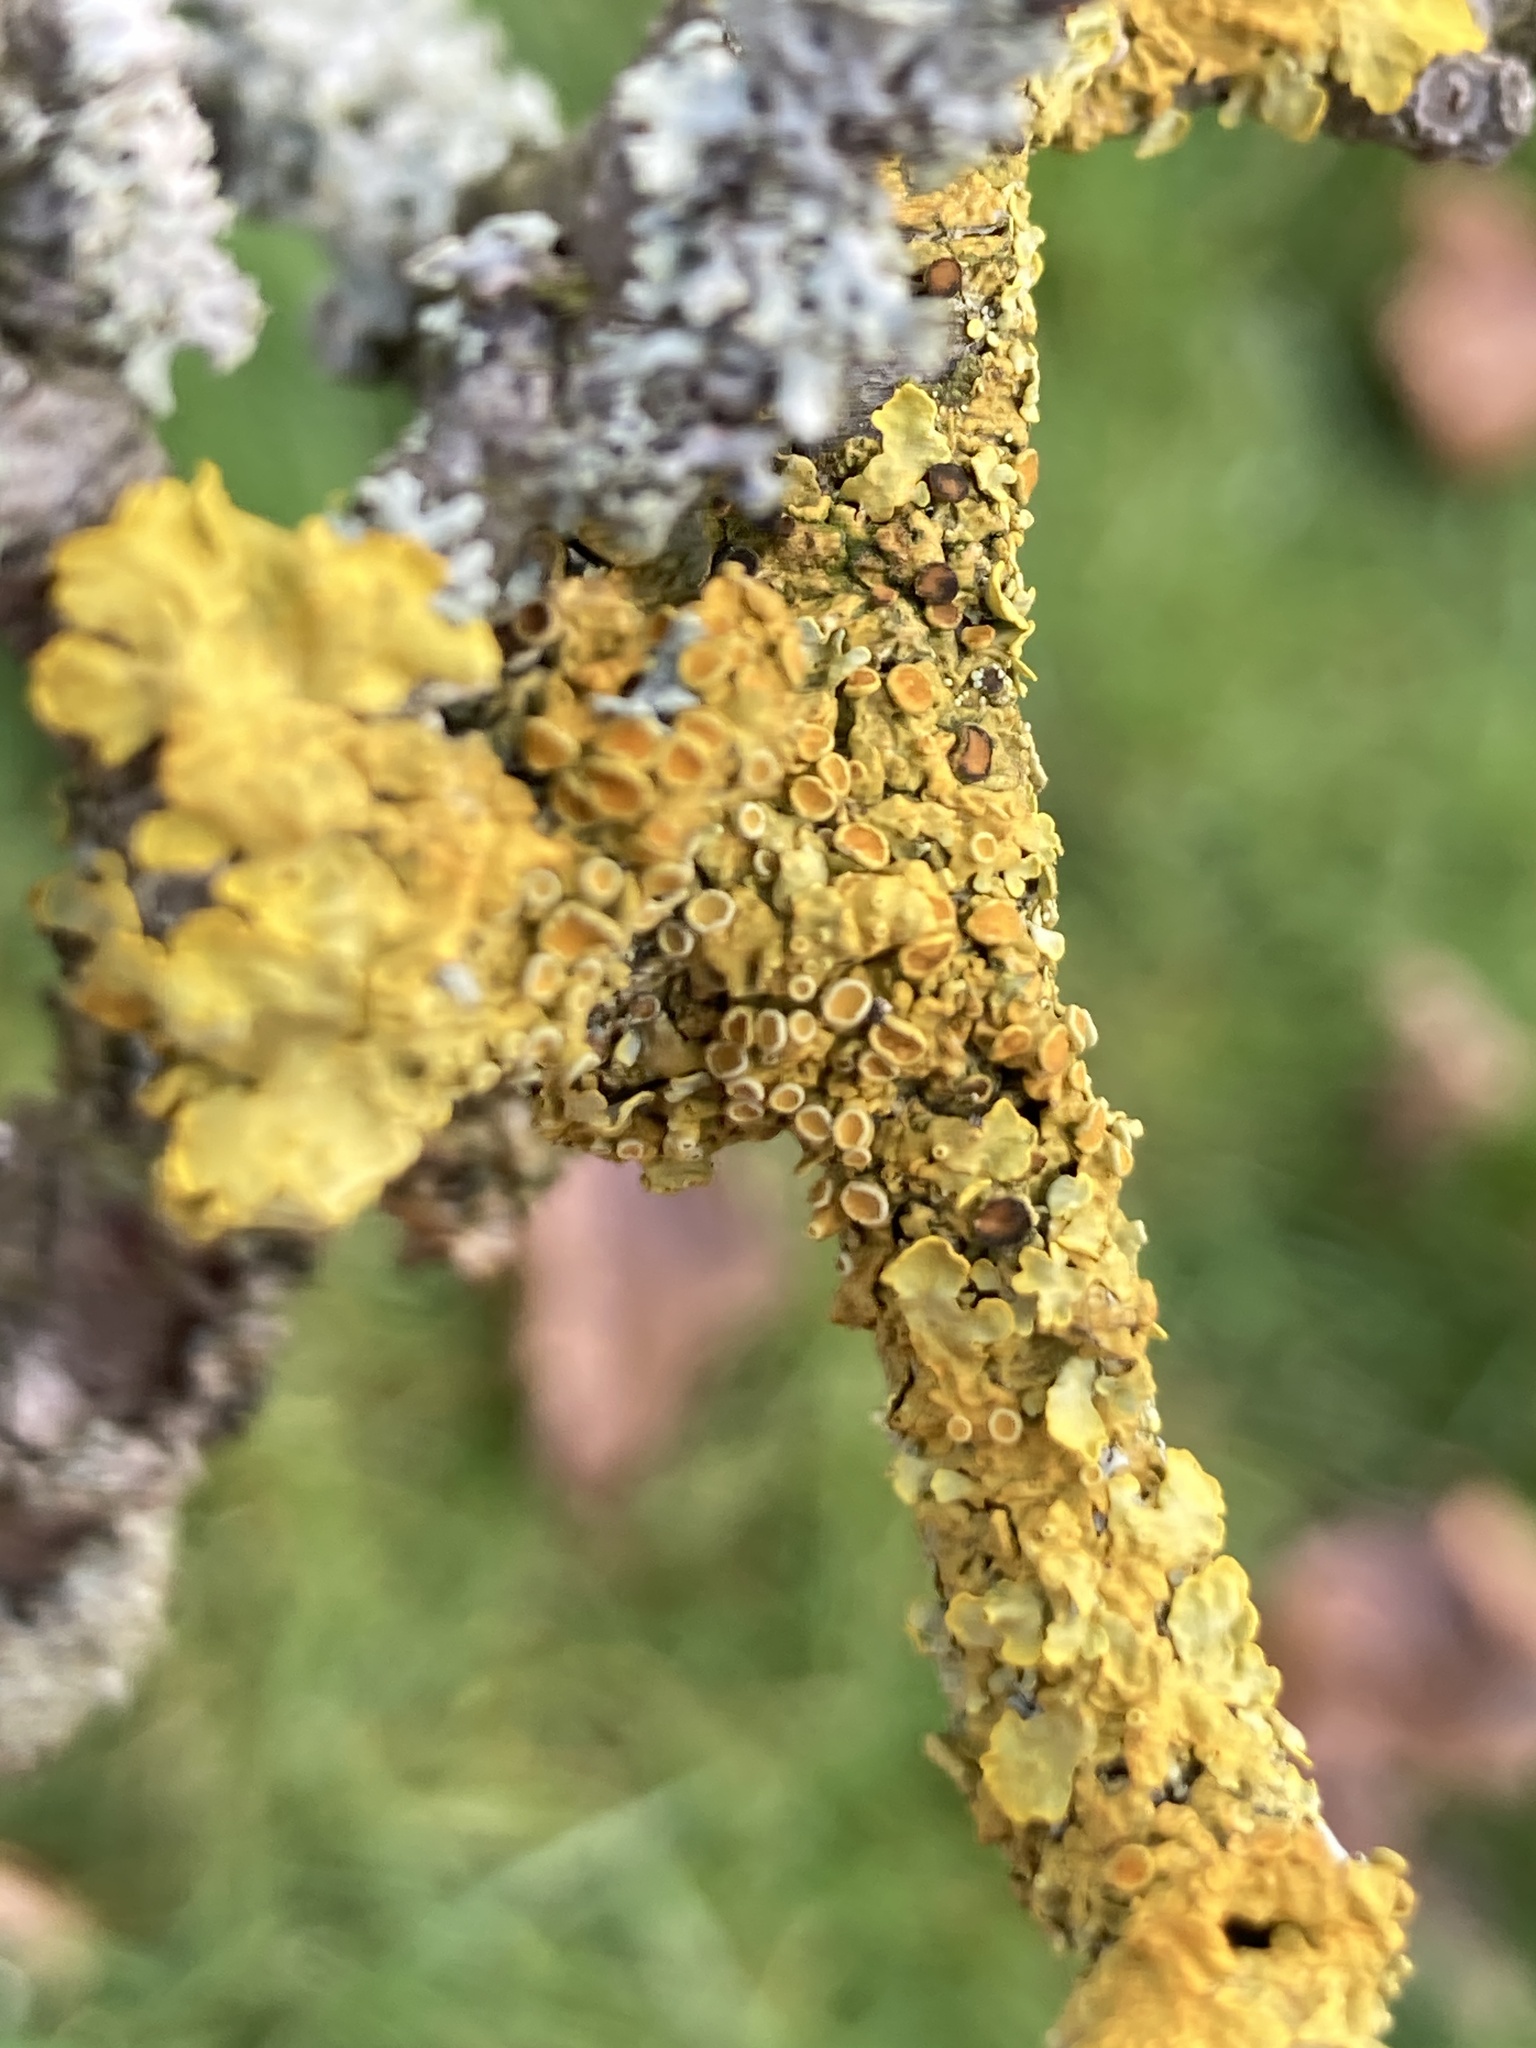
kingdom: Fungi
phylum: Ascomycota
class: Lecanoromycetes
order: Teloschistales
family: Teloschistaceae
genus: Xanthoria
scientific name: Xanthoria parietina
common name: Common orange lichen
